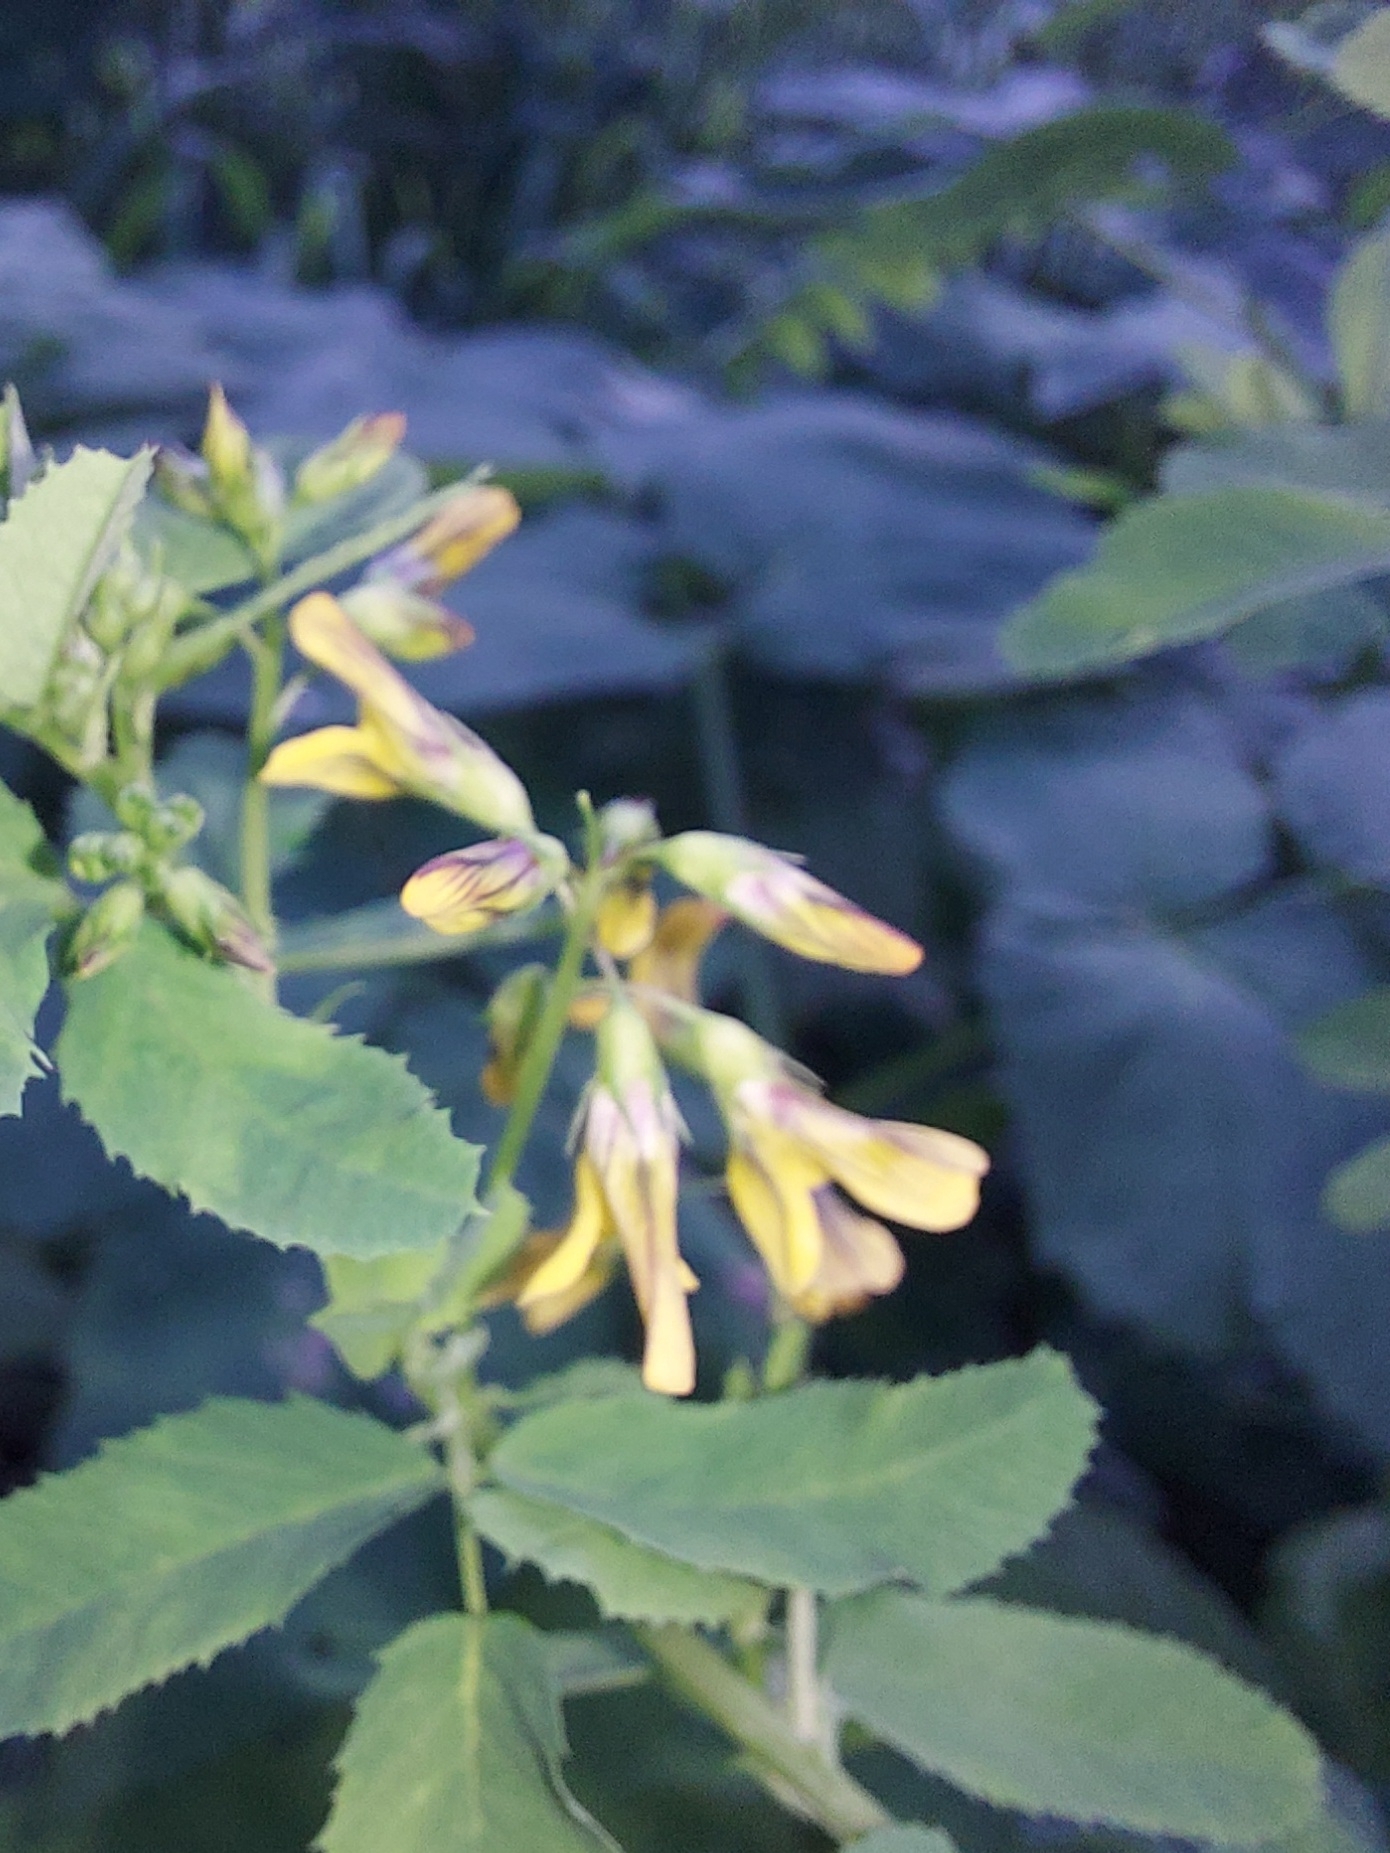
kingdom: Plantae
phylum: Tracheophyta
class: Magnoliopsida
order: Fabales
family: Fabaceae
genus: Medicago
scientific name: Medicago platycarpos
